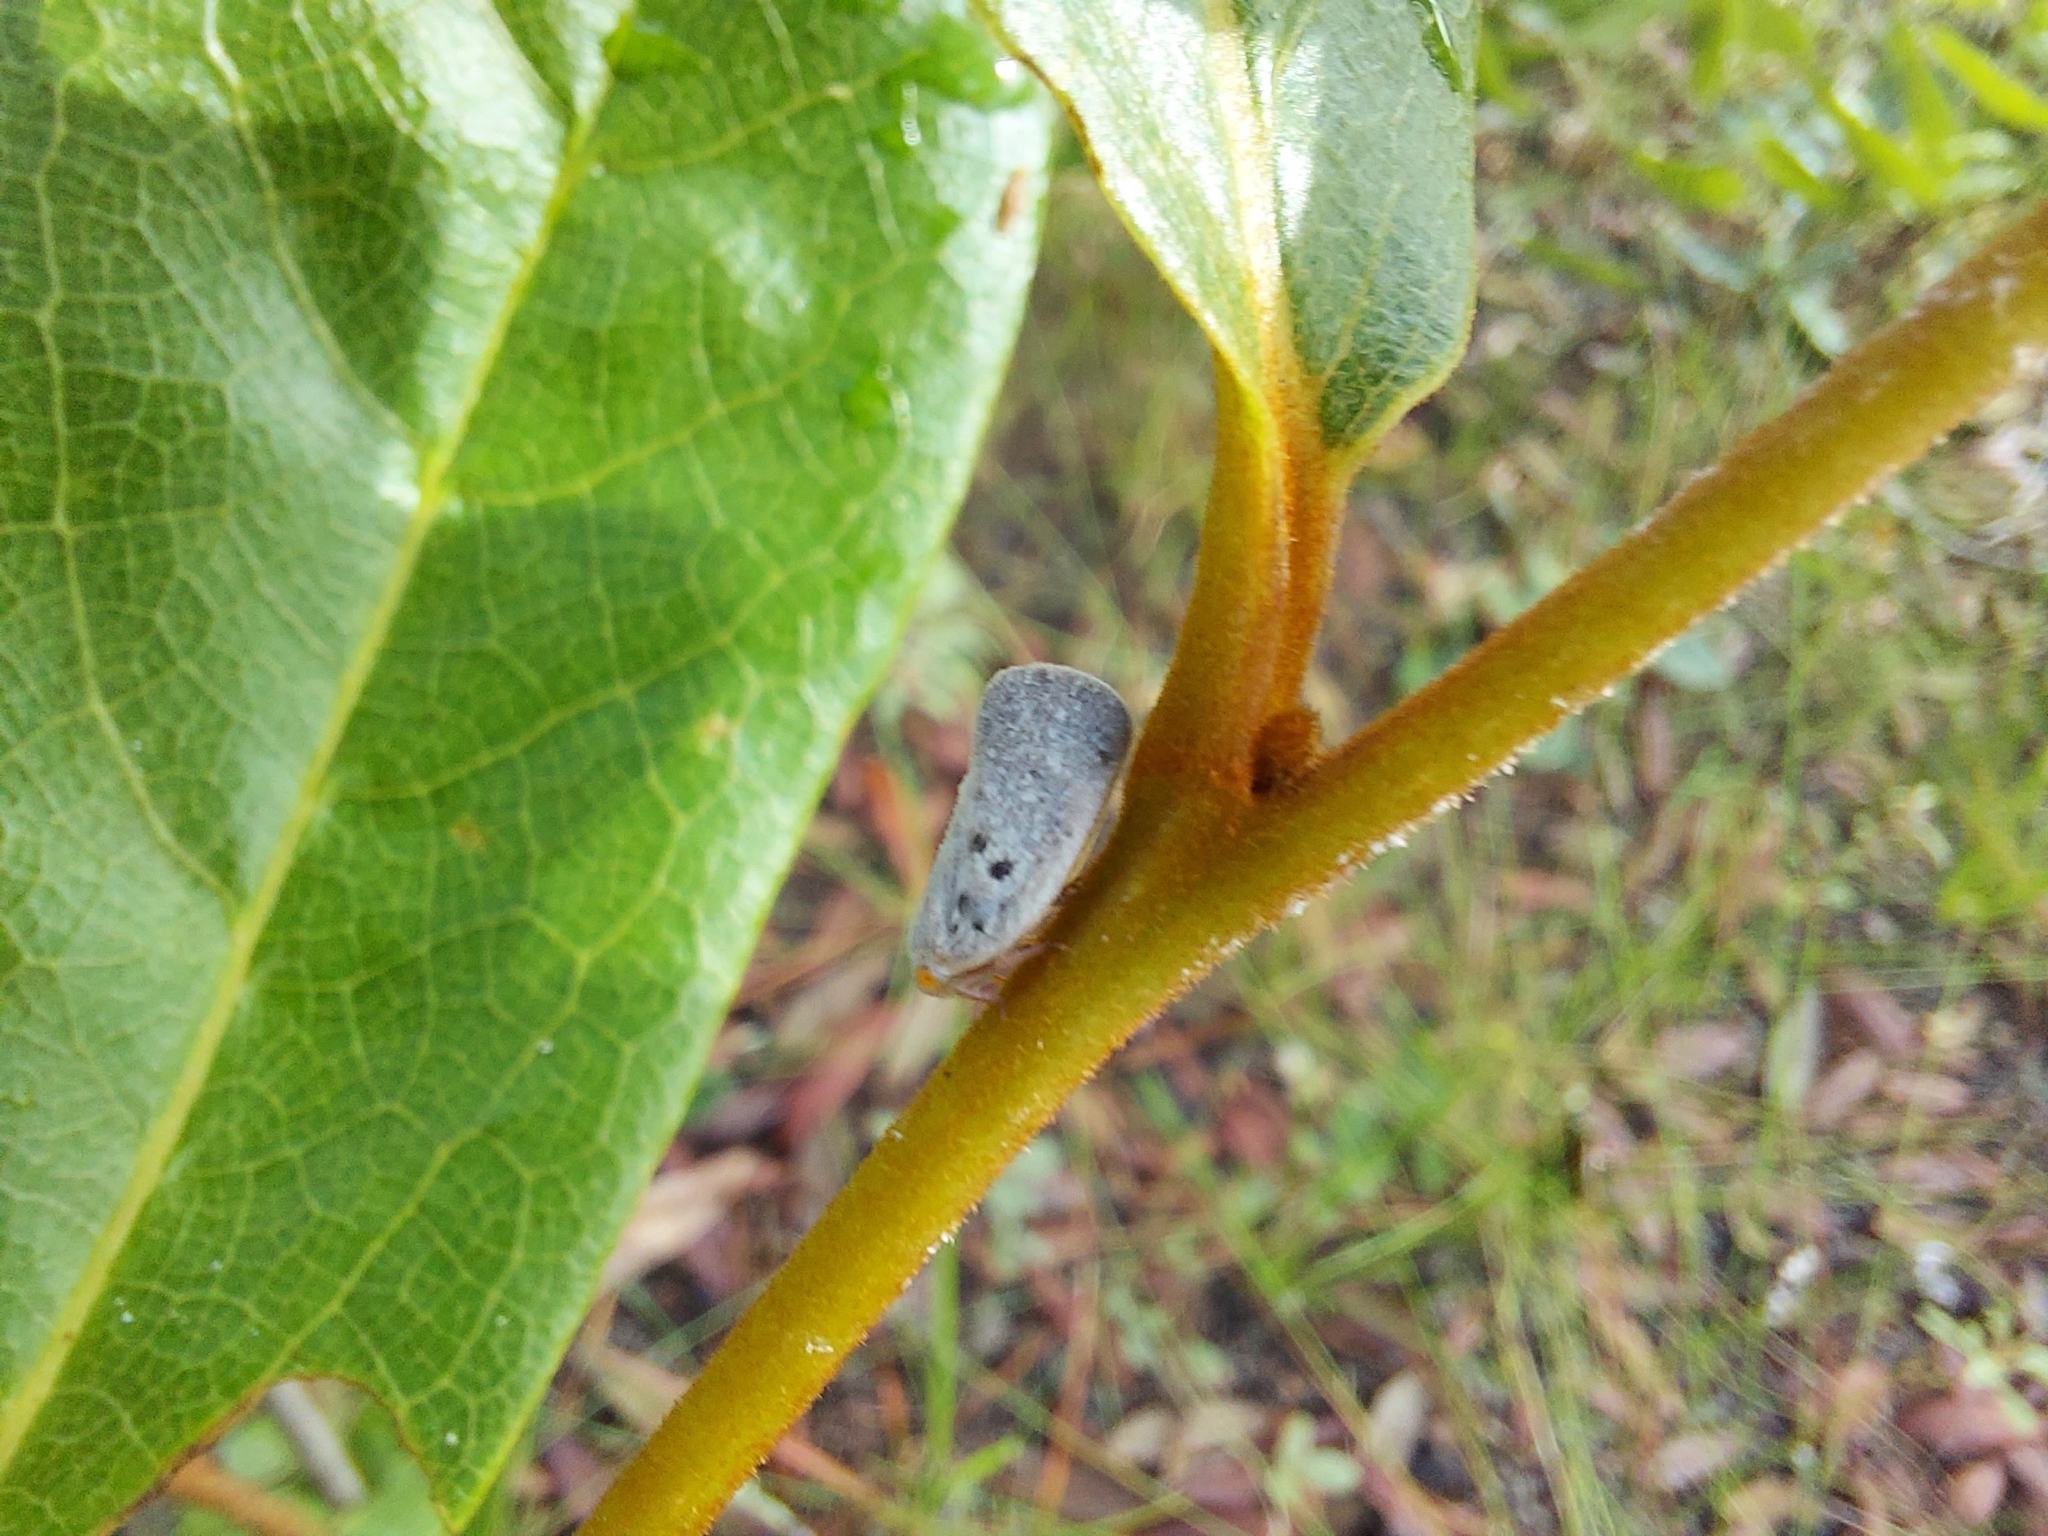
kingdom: Animalia
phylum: Arthropoda
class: Insecta
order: Hemiptera
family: Flatidae
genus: Metcalfa
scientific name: Metcalfa pruinosa
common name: Citrus flatid planthopper
